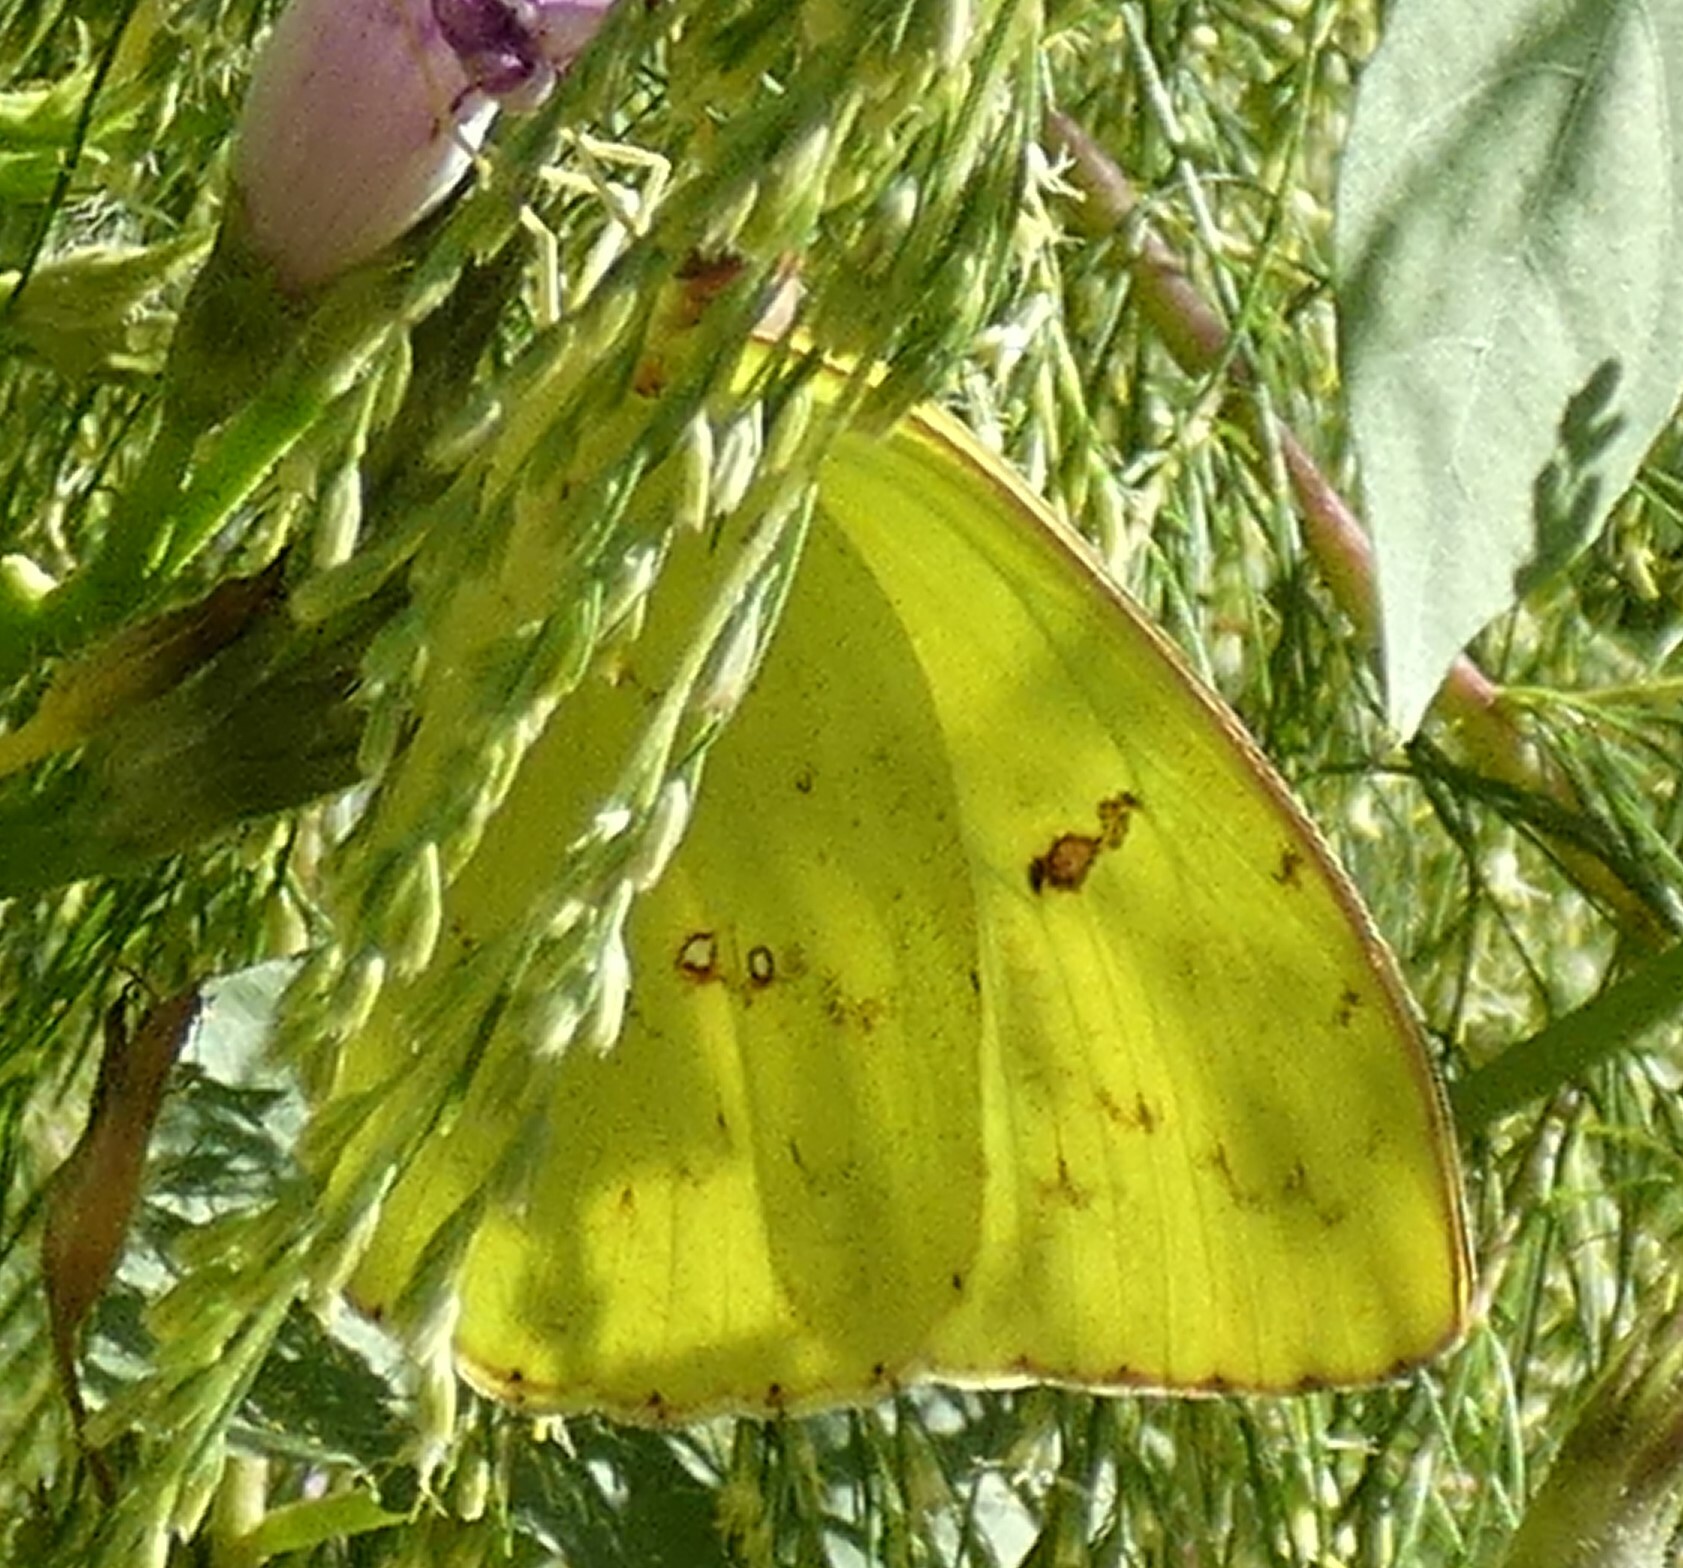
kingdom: Animalia
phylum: Arthropoda
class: Insecta
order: Lepidoptera
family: Pieridae
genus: Phoebis
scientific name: Phoebis sennae
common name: Cloudless sulphur
